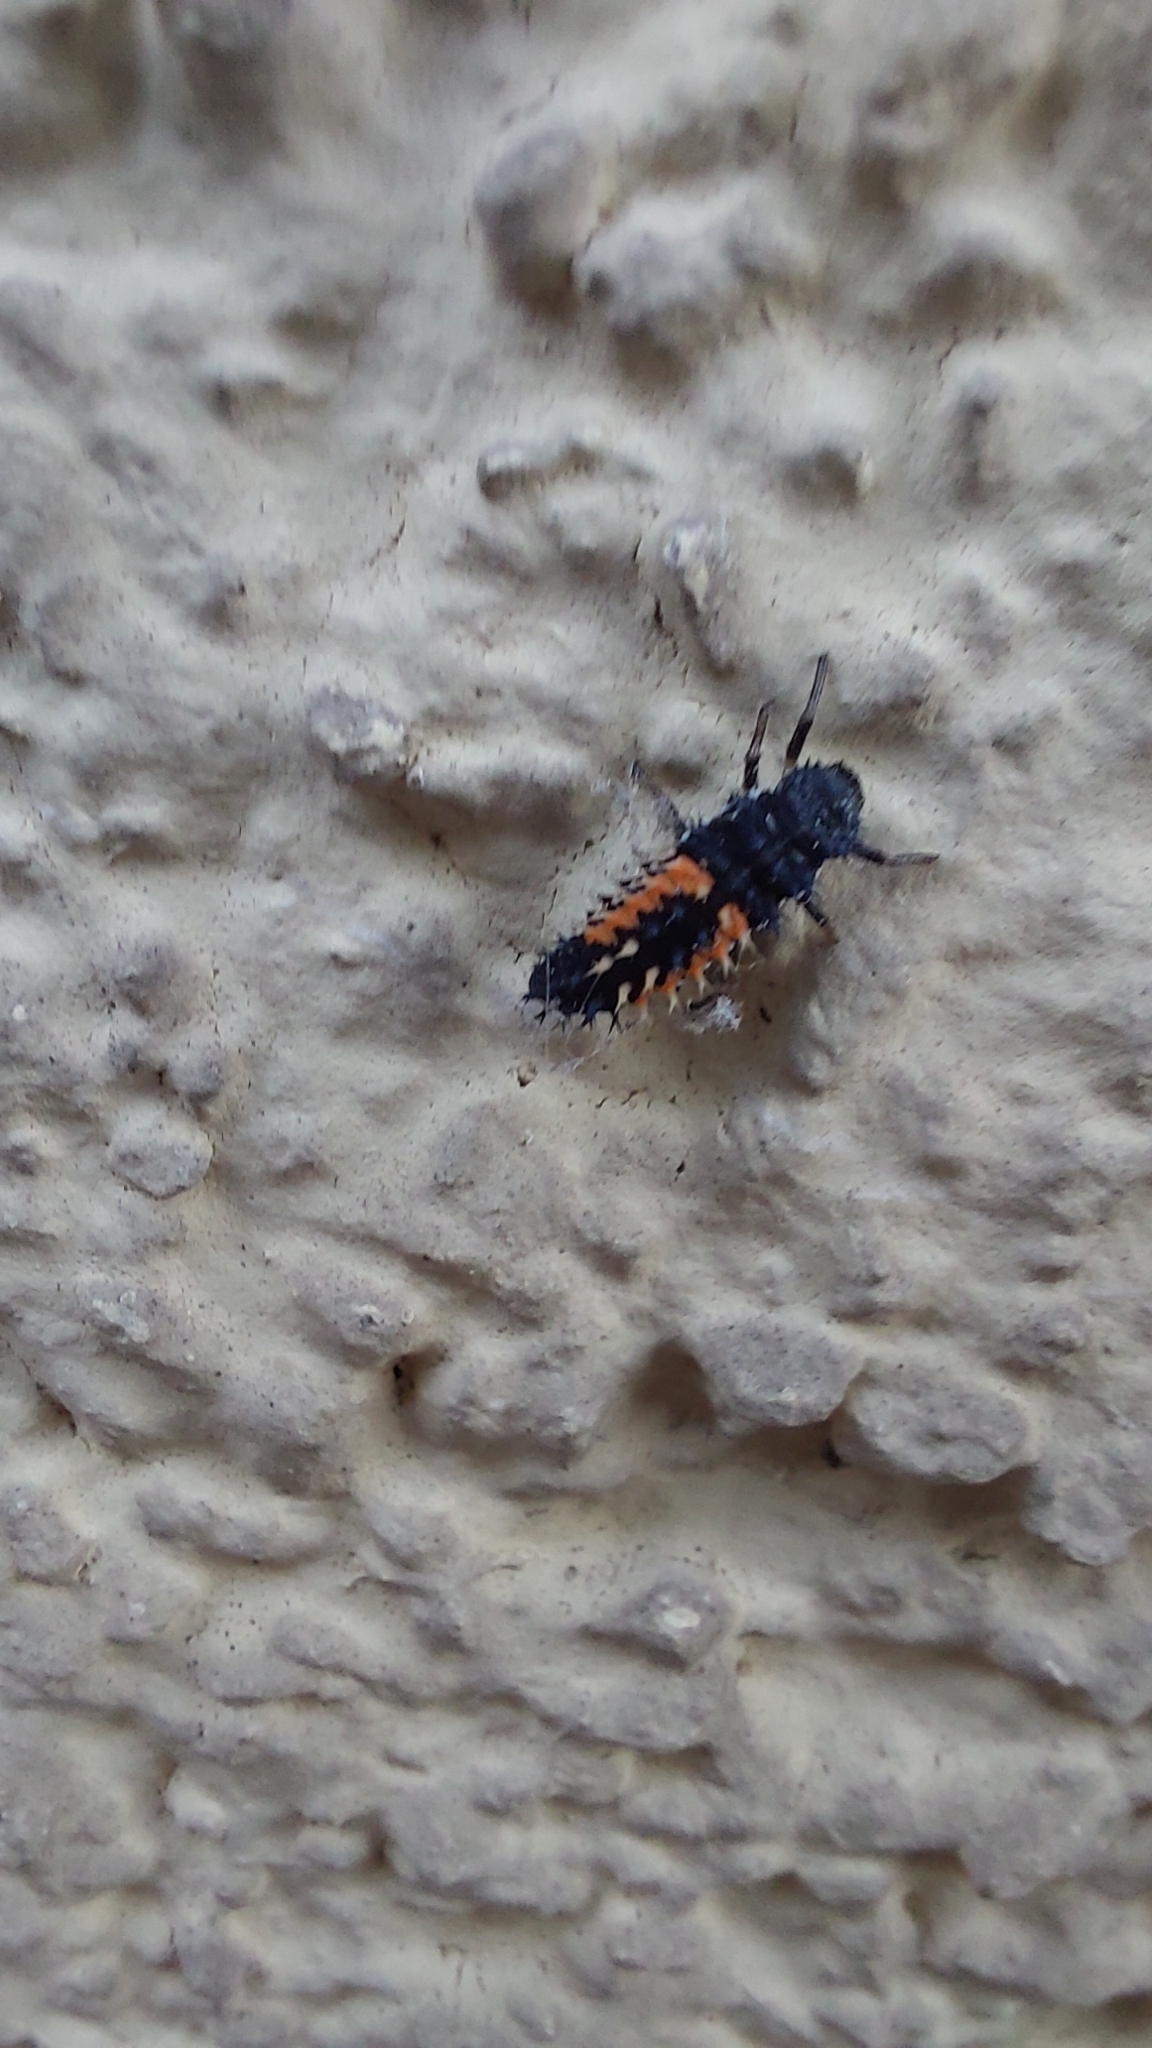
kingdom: Animalia
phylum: Arthropoda
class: Insecta
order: Coleoptera
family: Coccinellidae
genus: Harmonia
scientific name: Harmonia axyridis
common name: Harlequin ladybird
